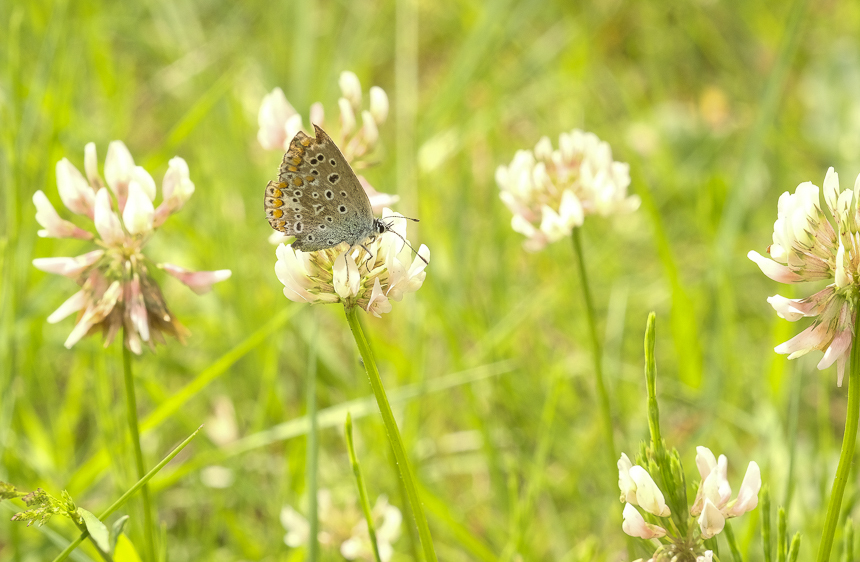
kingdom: Animalia
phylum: Arthropoda
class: Insecta
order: Lepidoptera
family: Lycaenidae
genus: Polyommatus
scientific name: Polyommatus icarus
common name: Common blue
